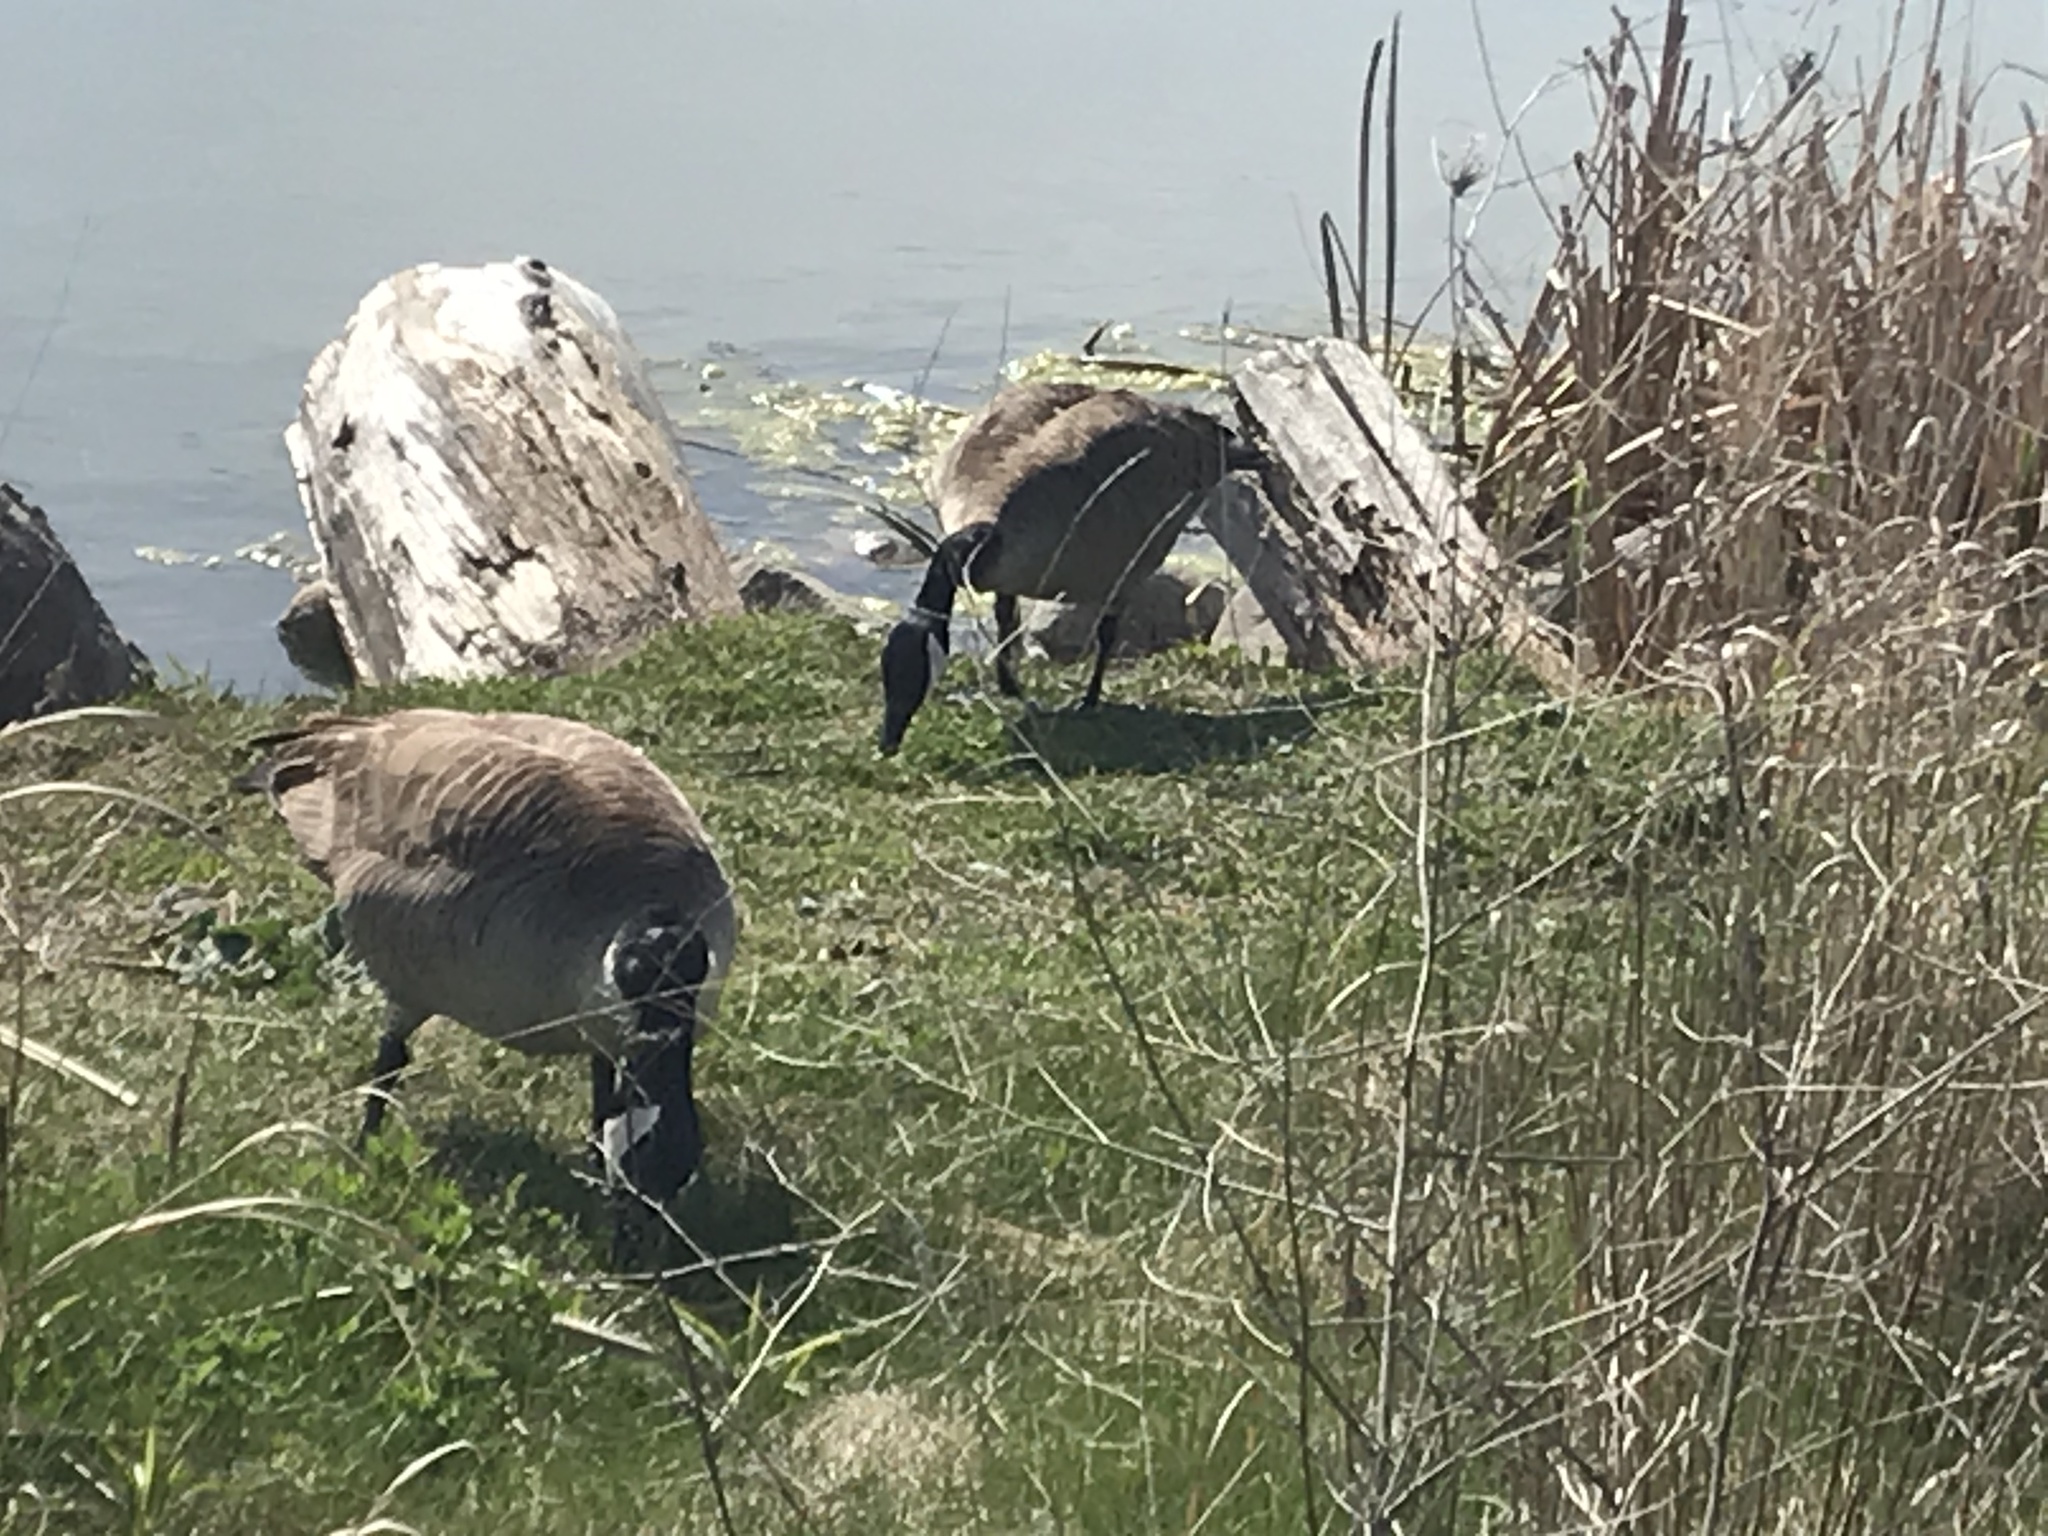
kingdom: Animalia
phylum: Chordata
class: Aves
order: Anseriformes
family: Anatidae
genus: Branta
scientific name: Branta canadensis
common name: Canada goose
